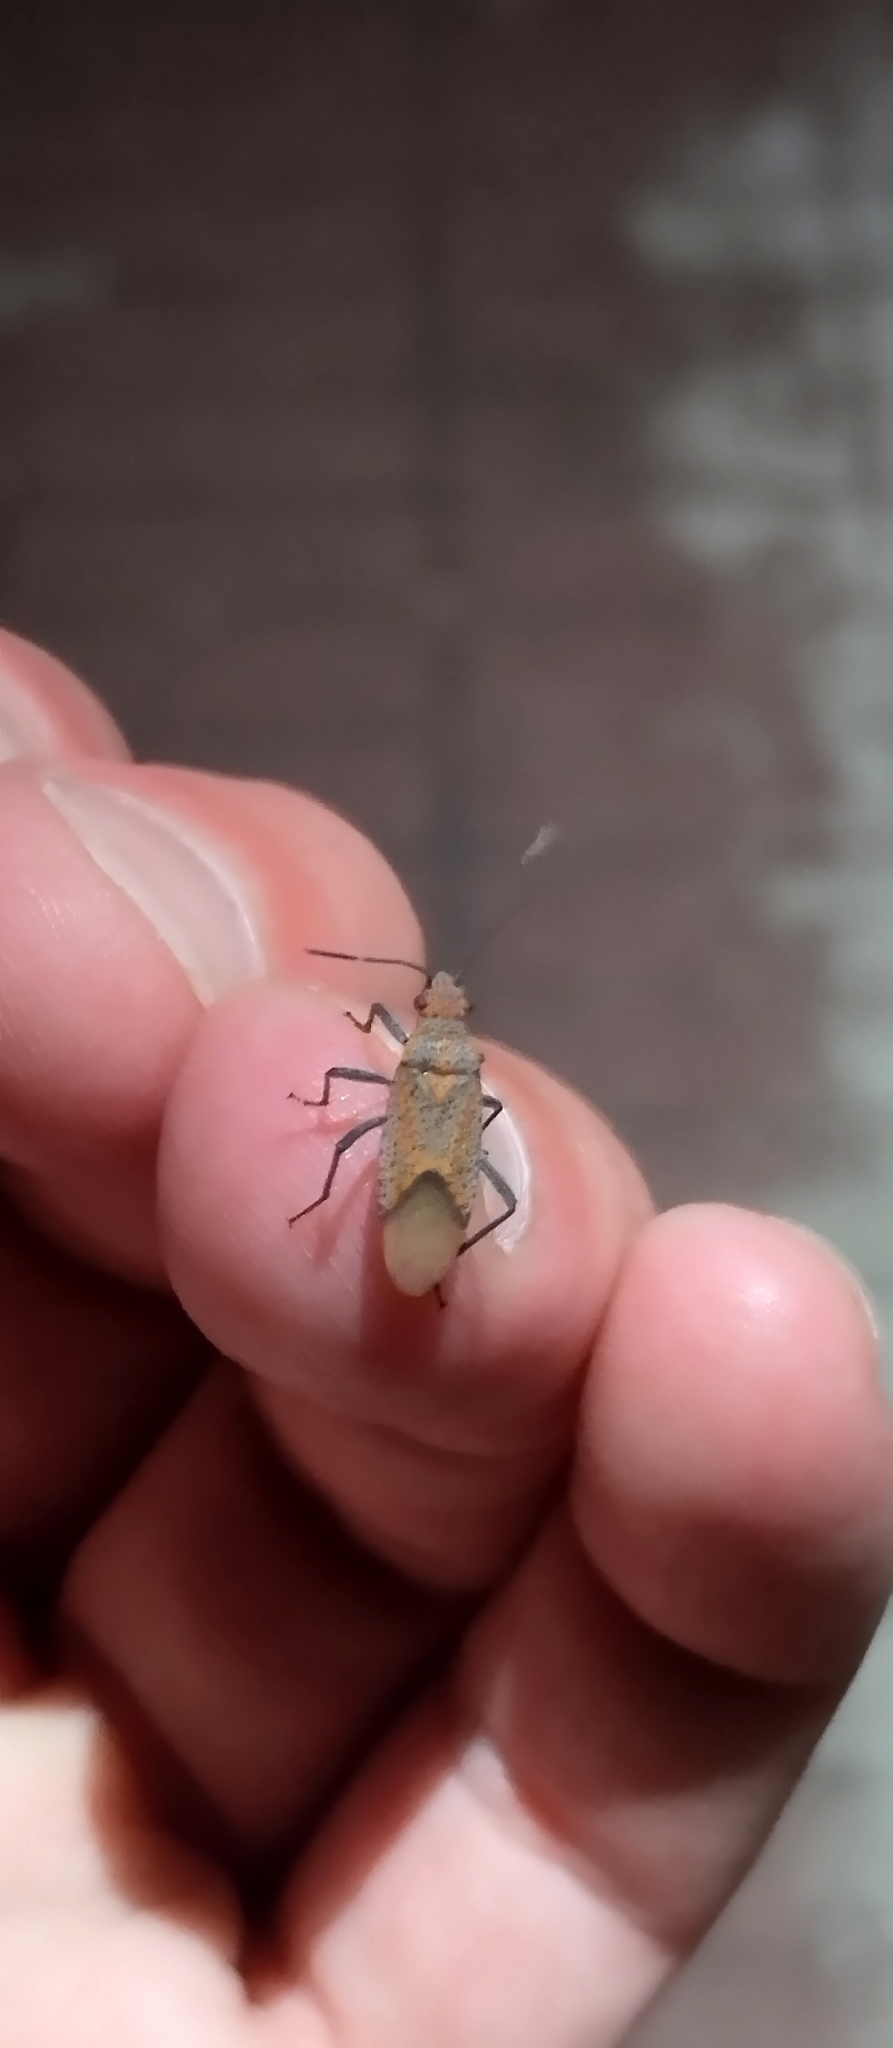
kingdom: Animalia
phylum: Arthropoda
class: Insecta
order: Hemiptera
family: Rhopalidae
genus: Jadera
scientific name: Jadera choprai
